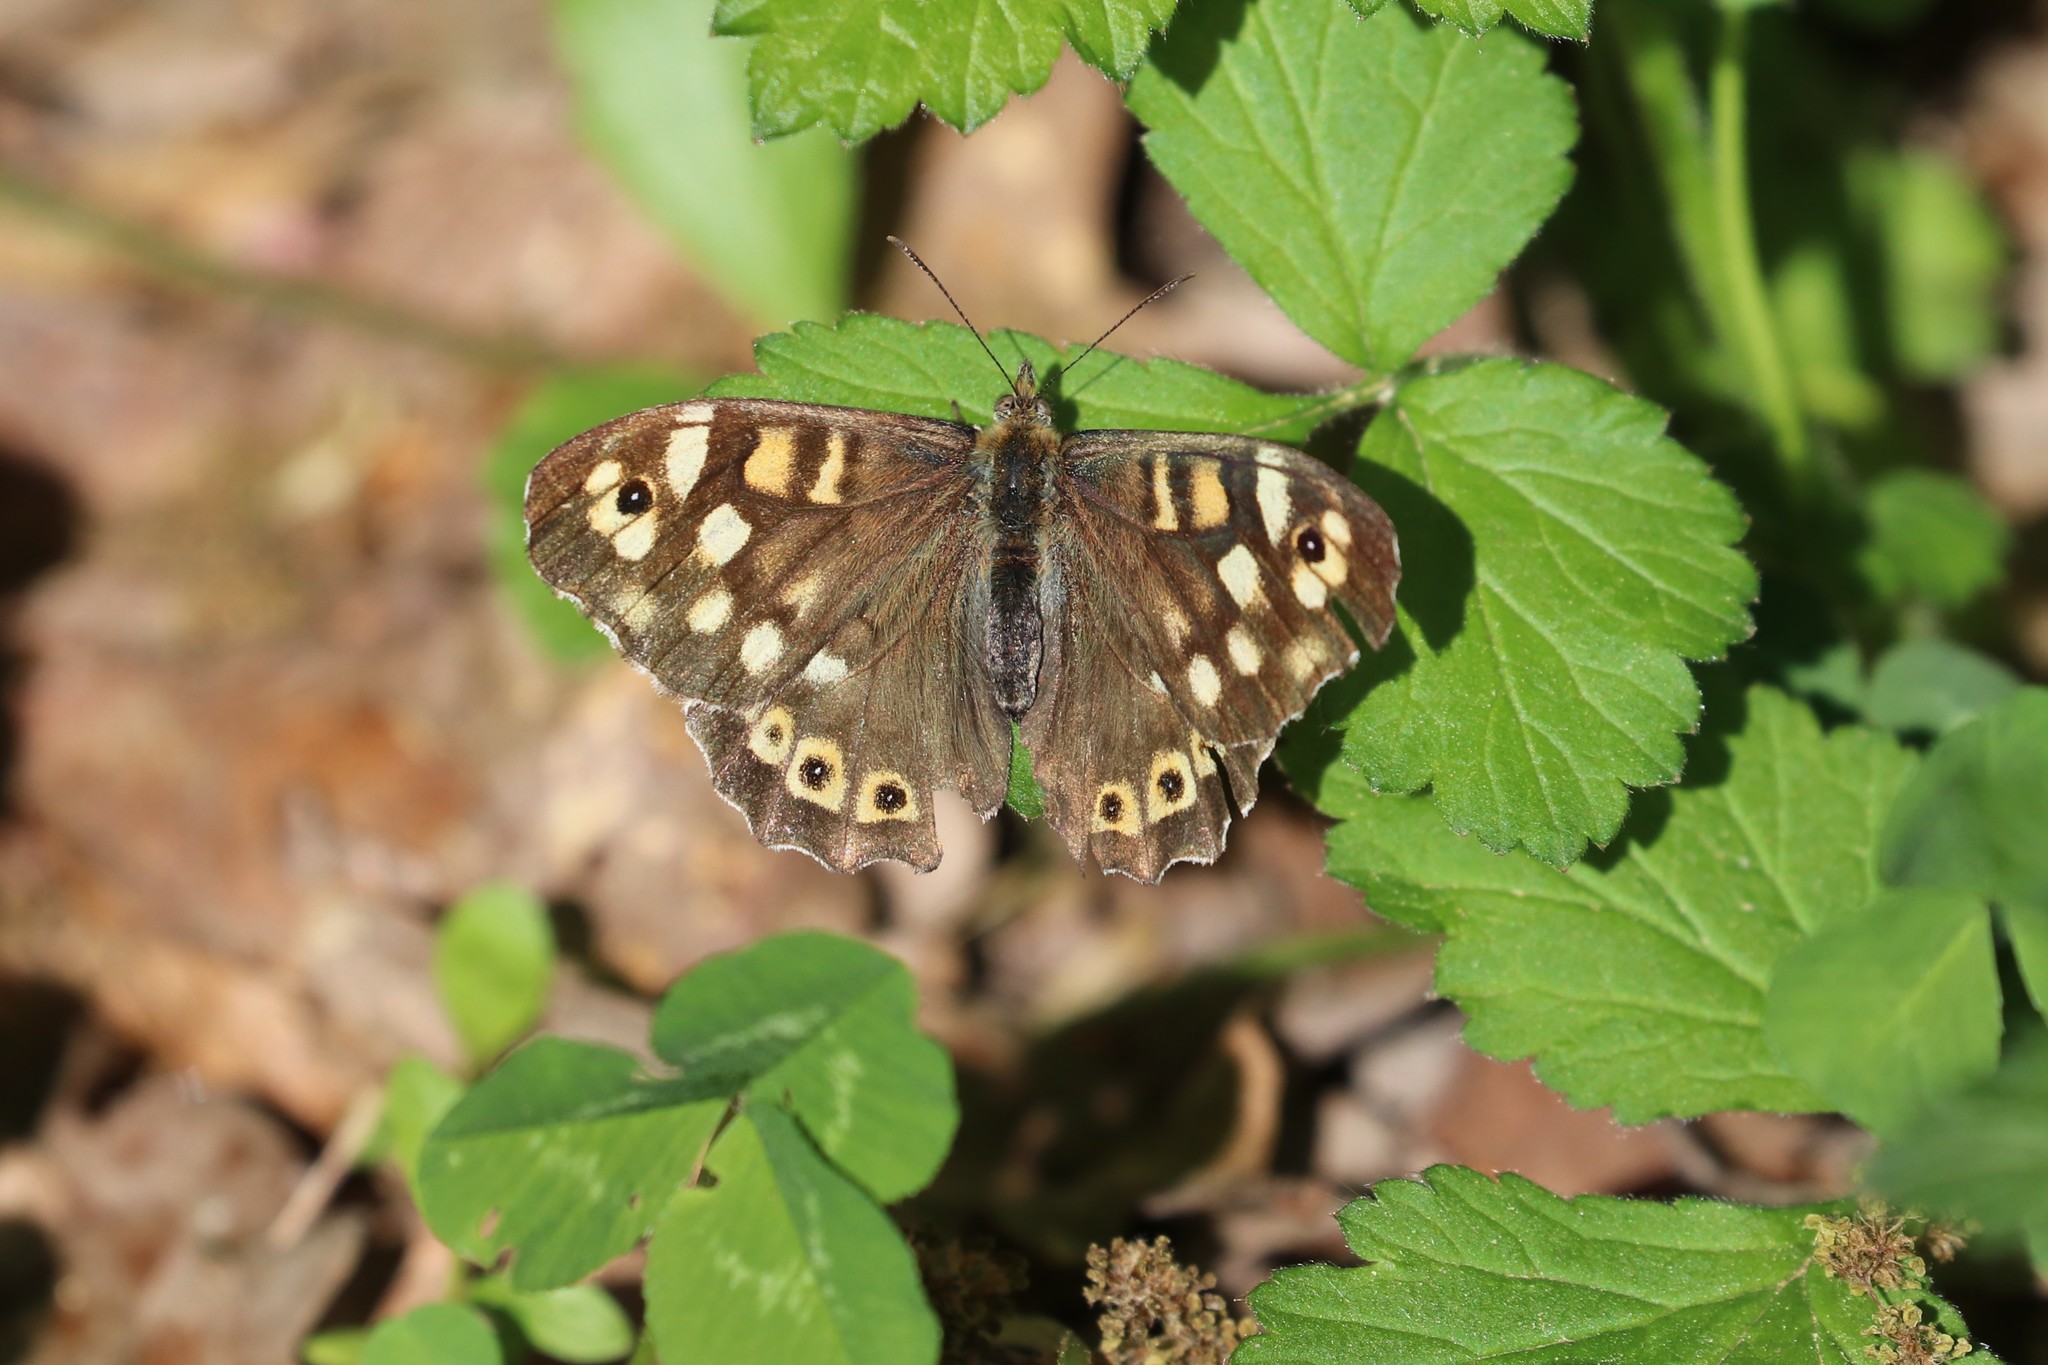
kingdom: Animalia
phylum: Arthropoda
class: Insecta
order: Lepidoptera
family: Nymphalidae
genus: Pararge
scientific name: Pararge aegeria
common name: Speckled wood
